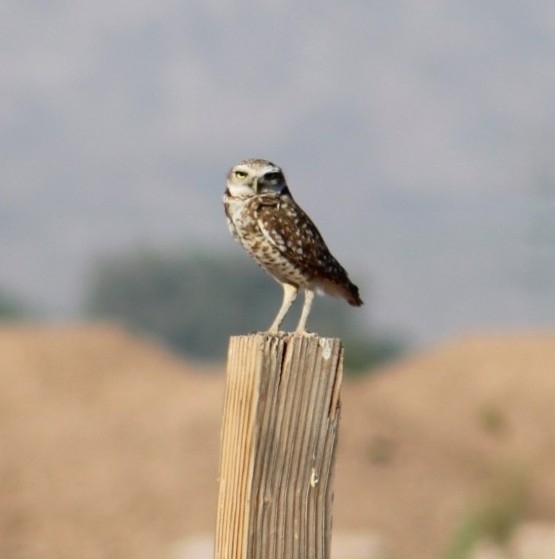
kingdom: Animalia
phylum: Chordata
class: Aves
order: Strigiformes
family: Strigidae
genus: Athene
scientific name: Athene cunicularia
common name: Burrowing owl
